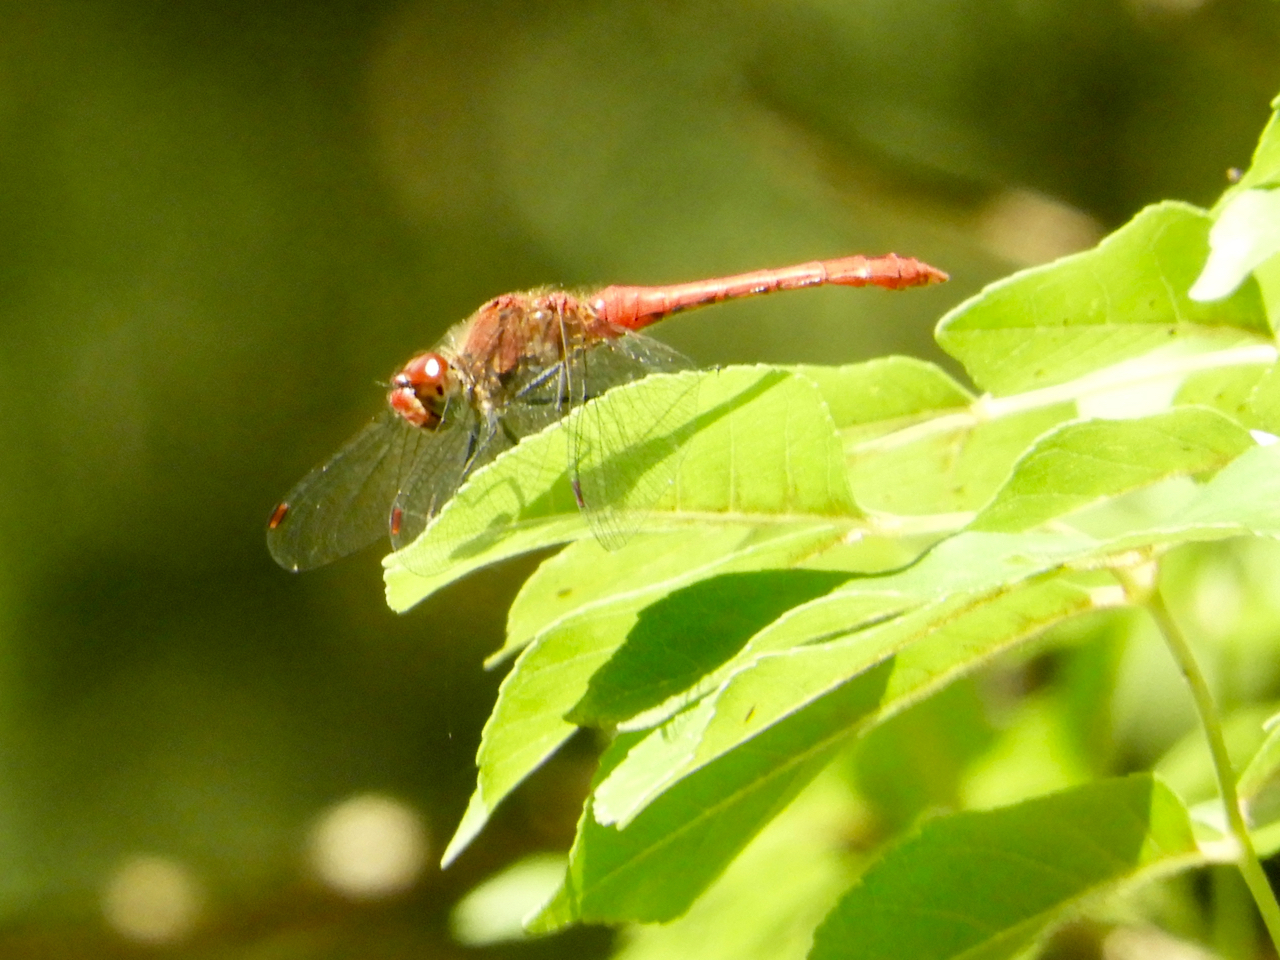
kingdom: Animalia
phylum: Arthropoda
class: Insecta
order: Odonata
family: Libellulidae
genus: Sympetrum
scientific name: Sympetrum sanguineum
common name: Ruddy darter
